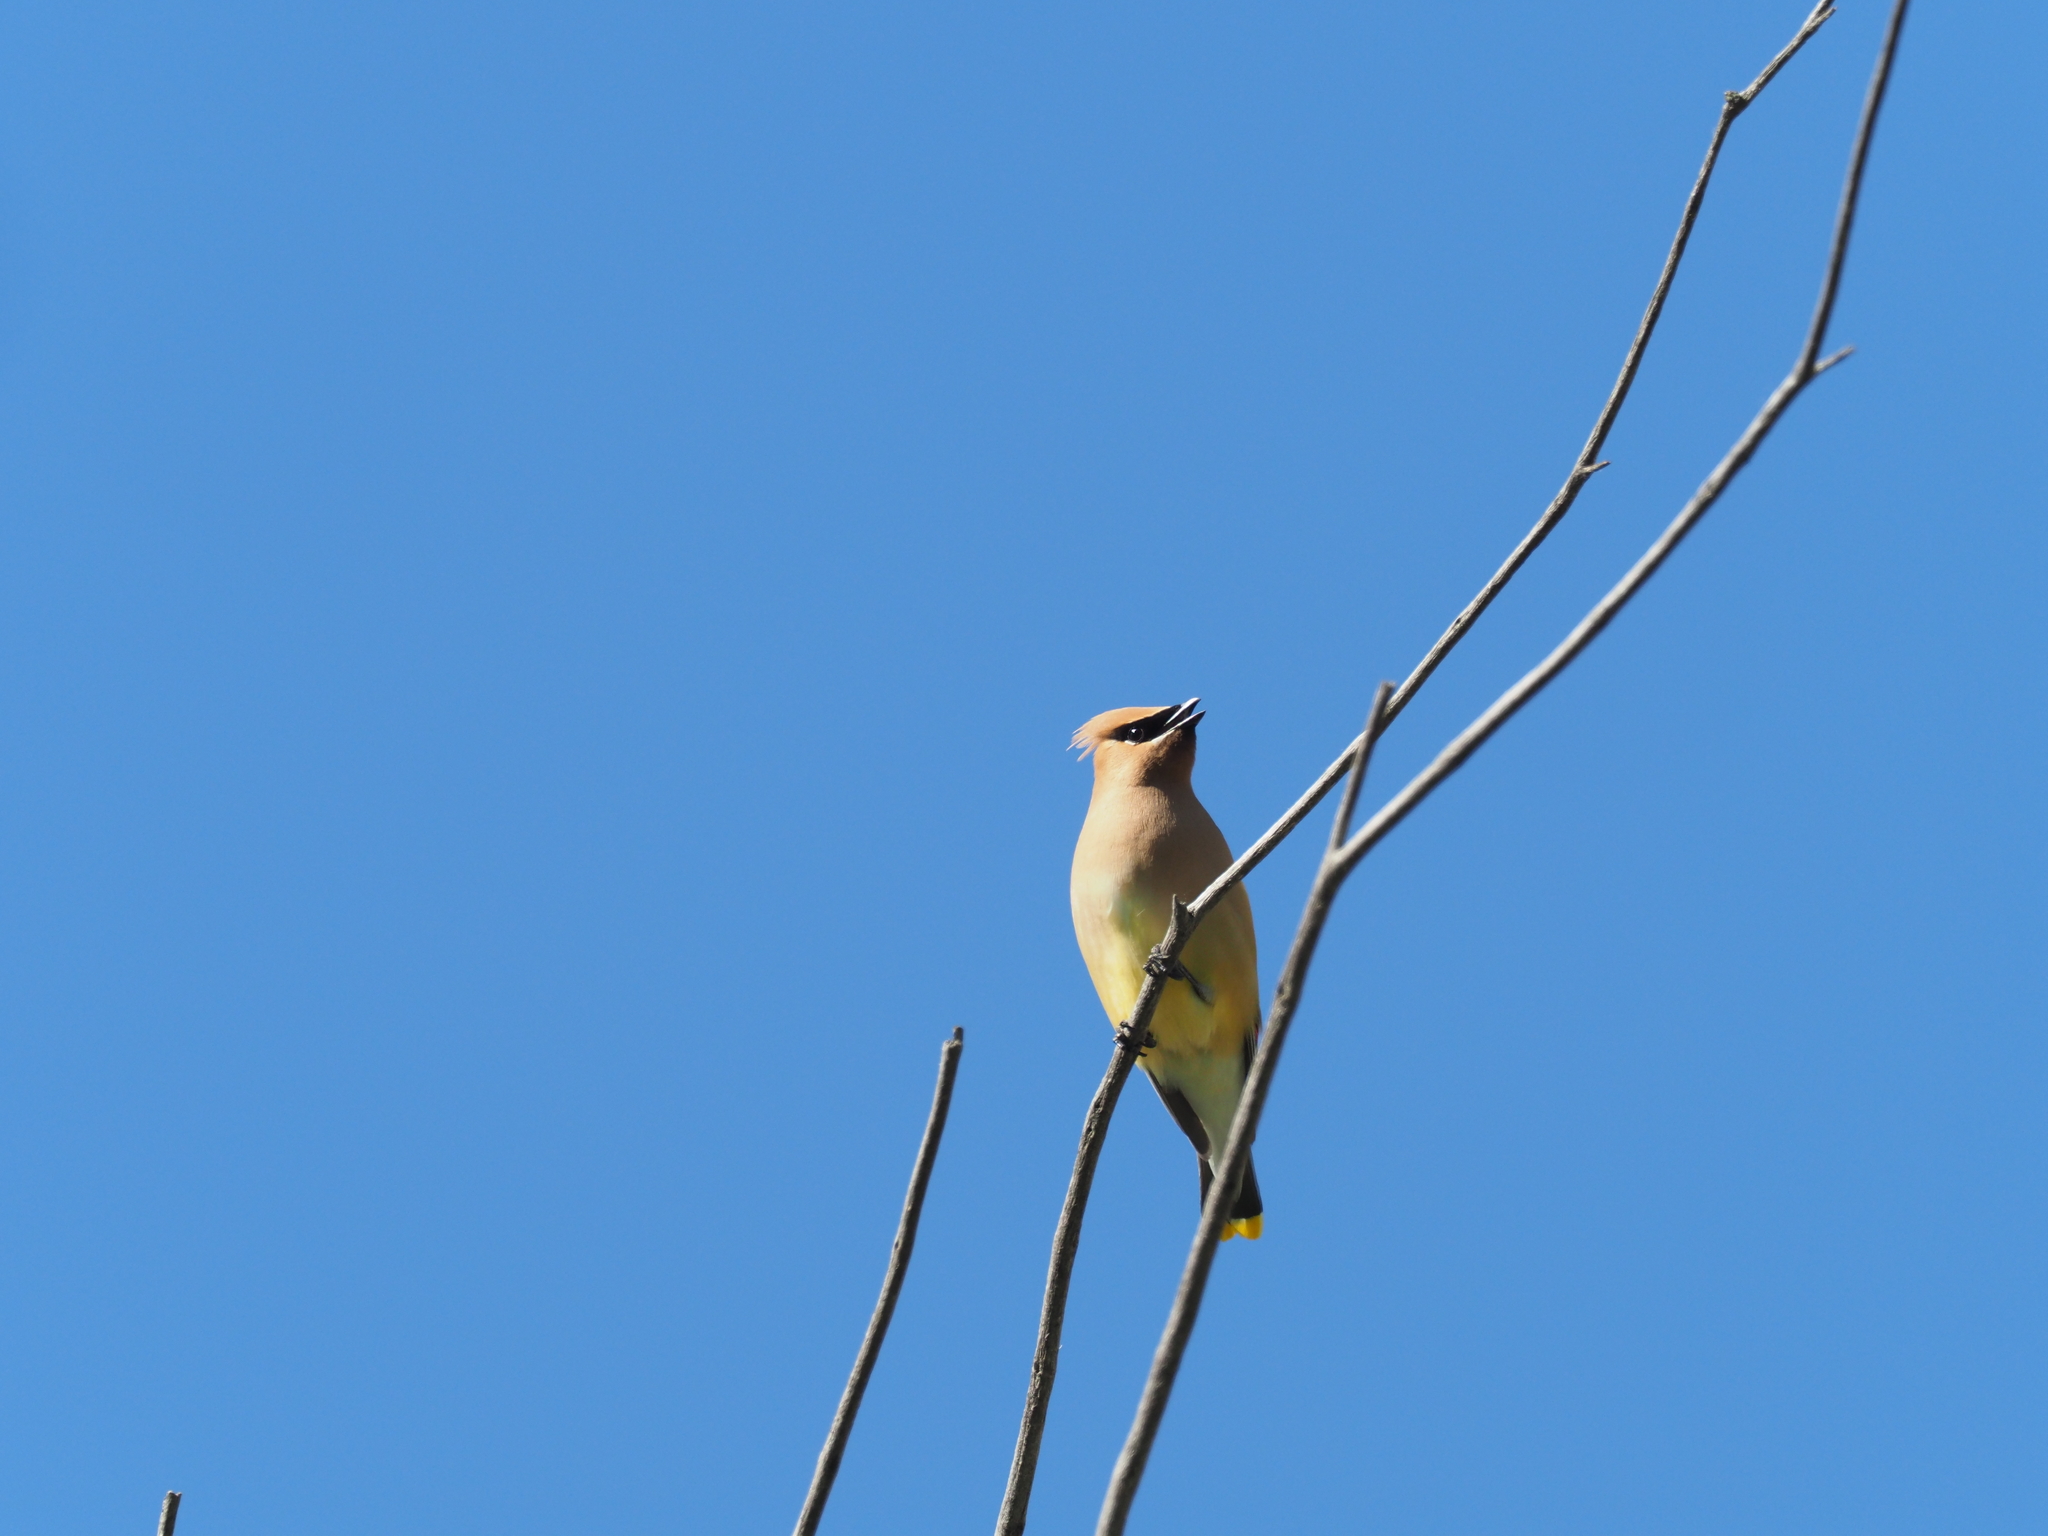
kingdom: Animalia
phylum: Chordata
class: Aves
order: Passeriformes
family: Bombycillidae
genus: Bombycilla
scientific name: Bombycilla cedrorum
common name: Cedar waxwing
